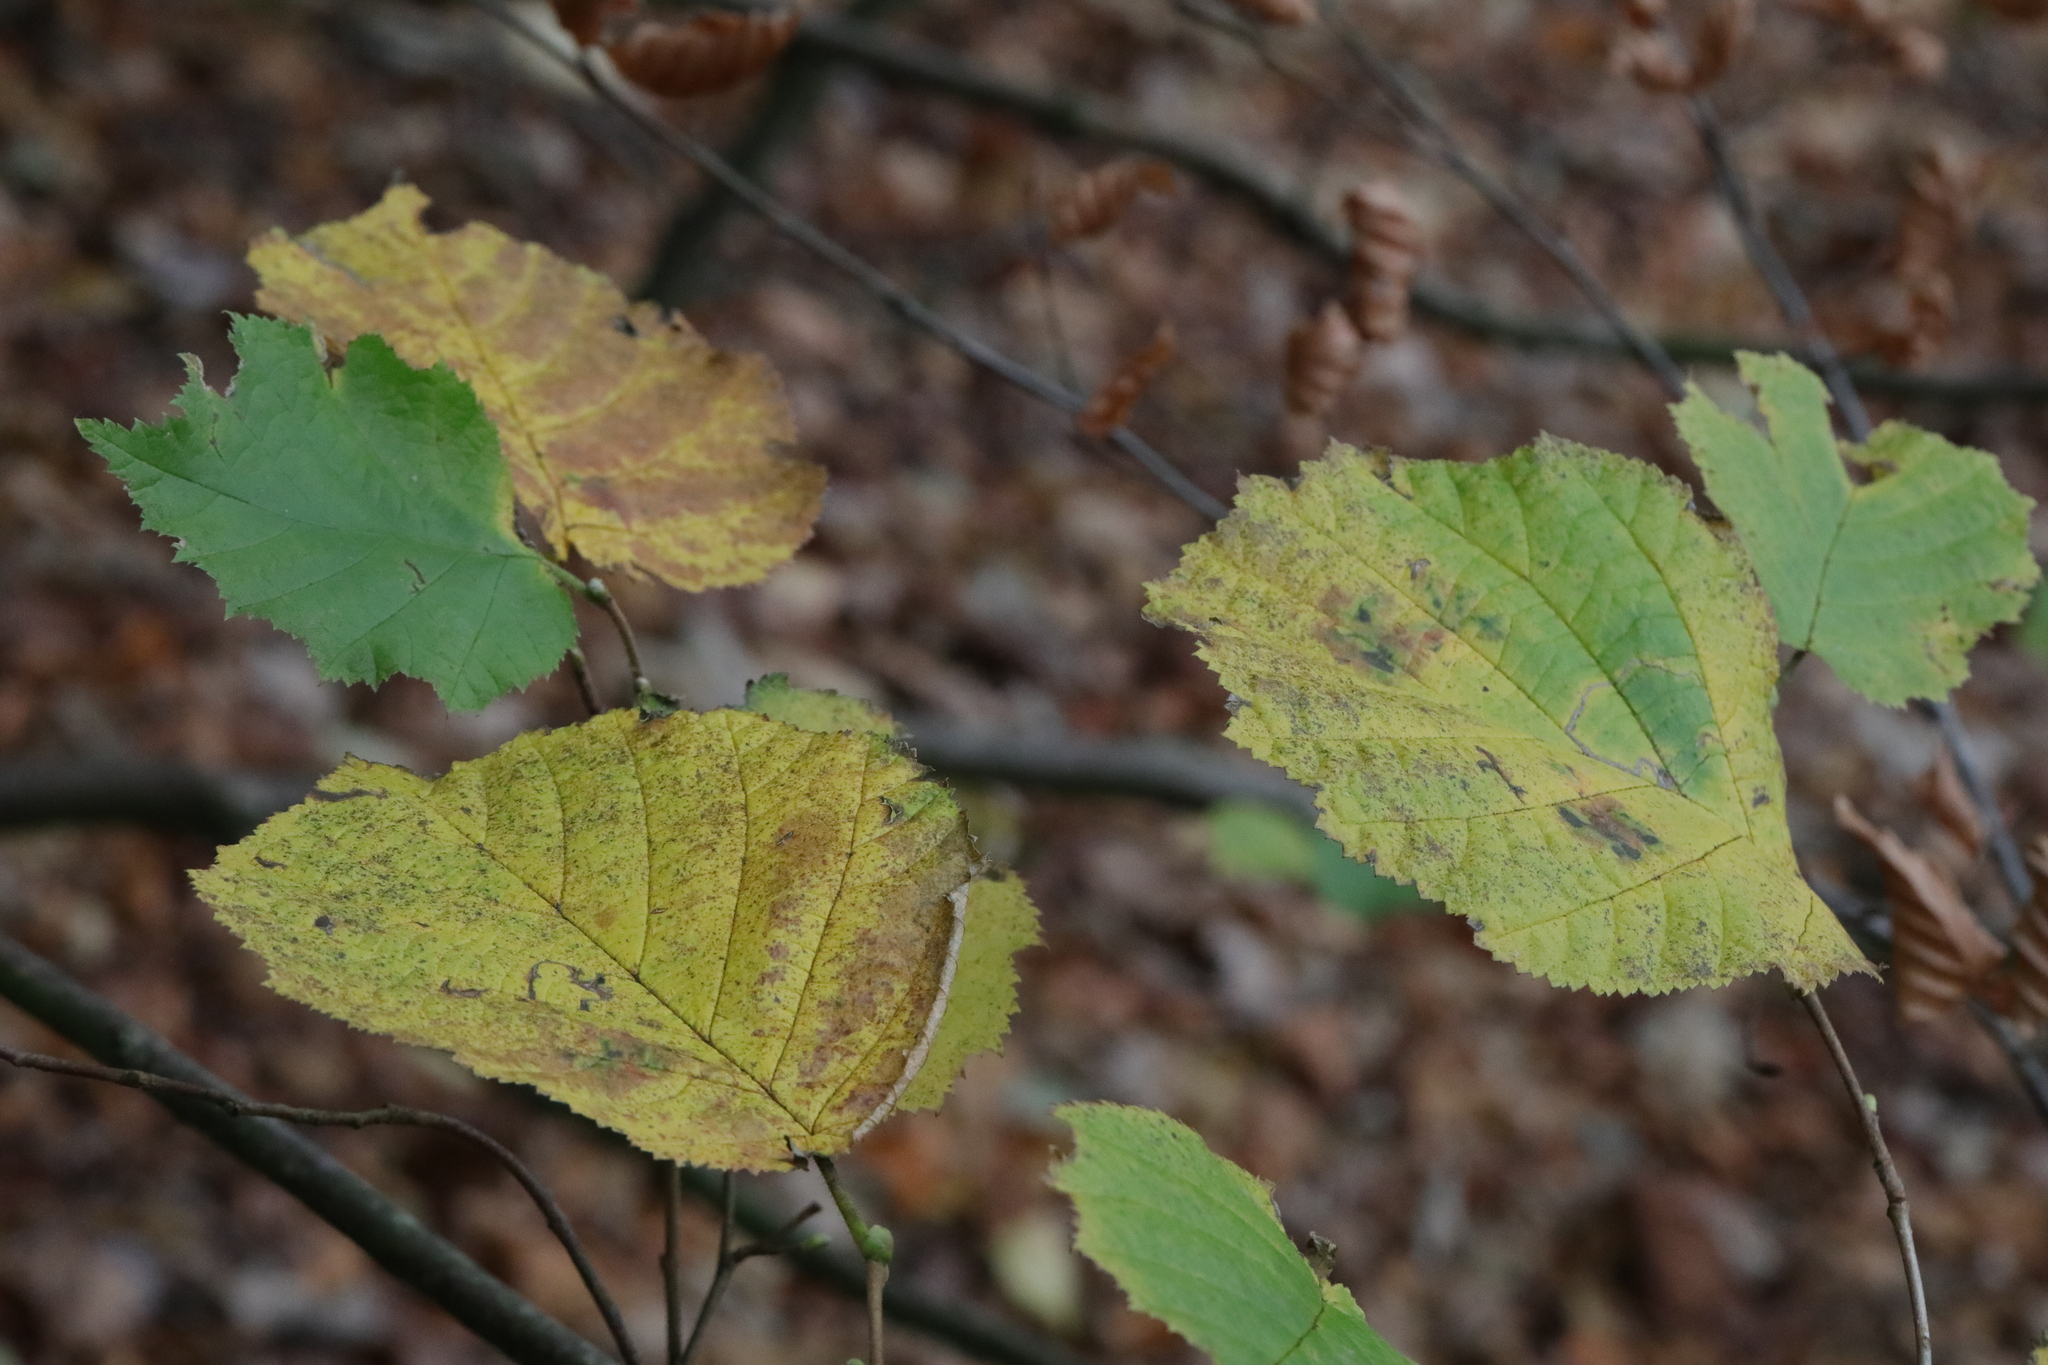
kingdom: Plantae
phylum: Tracheophyta
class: Magnoliopsida
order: Fagales
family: Betulaceae
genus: Corylus
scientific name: Corylus avellana
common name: European hazel
